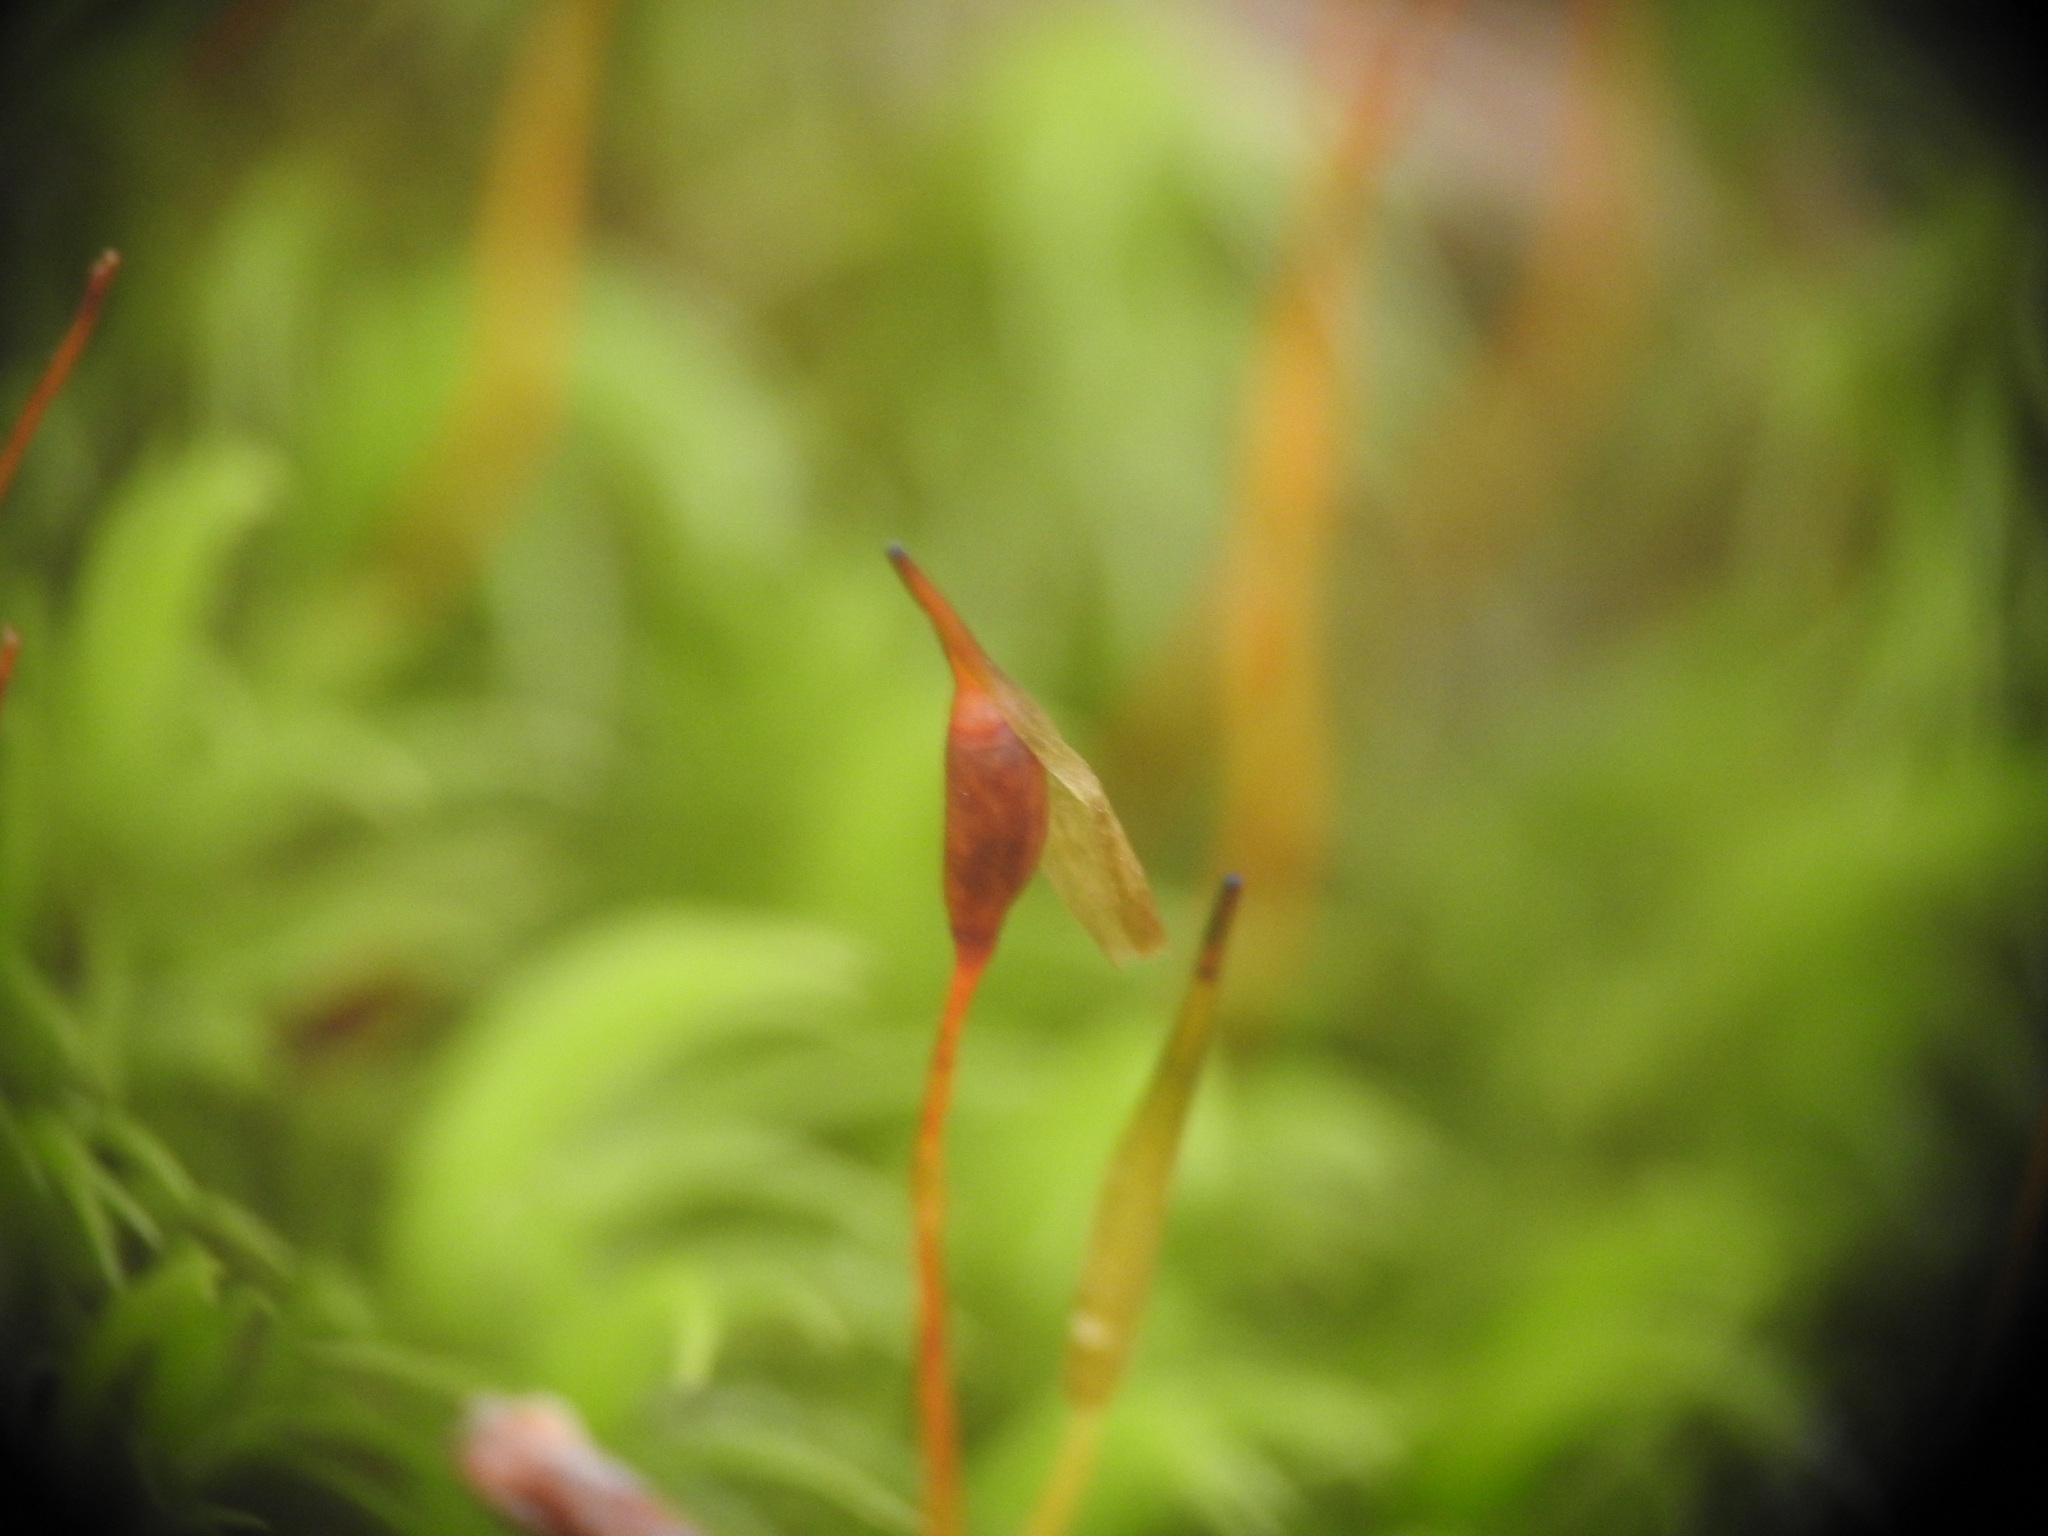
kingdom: Plantae
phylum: Bryophyta
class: Bryopsida
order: Dicranales
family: Dicranaceae
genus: Dicranum
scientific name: Dicranum scoparium
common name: Broom fork-moss
